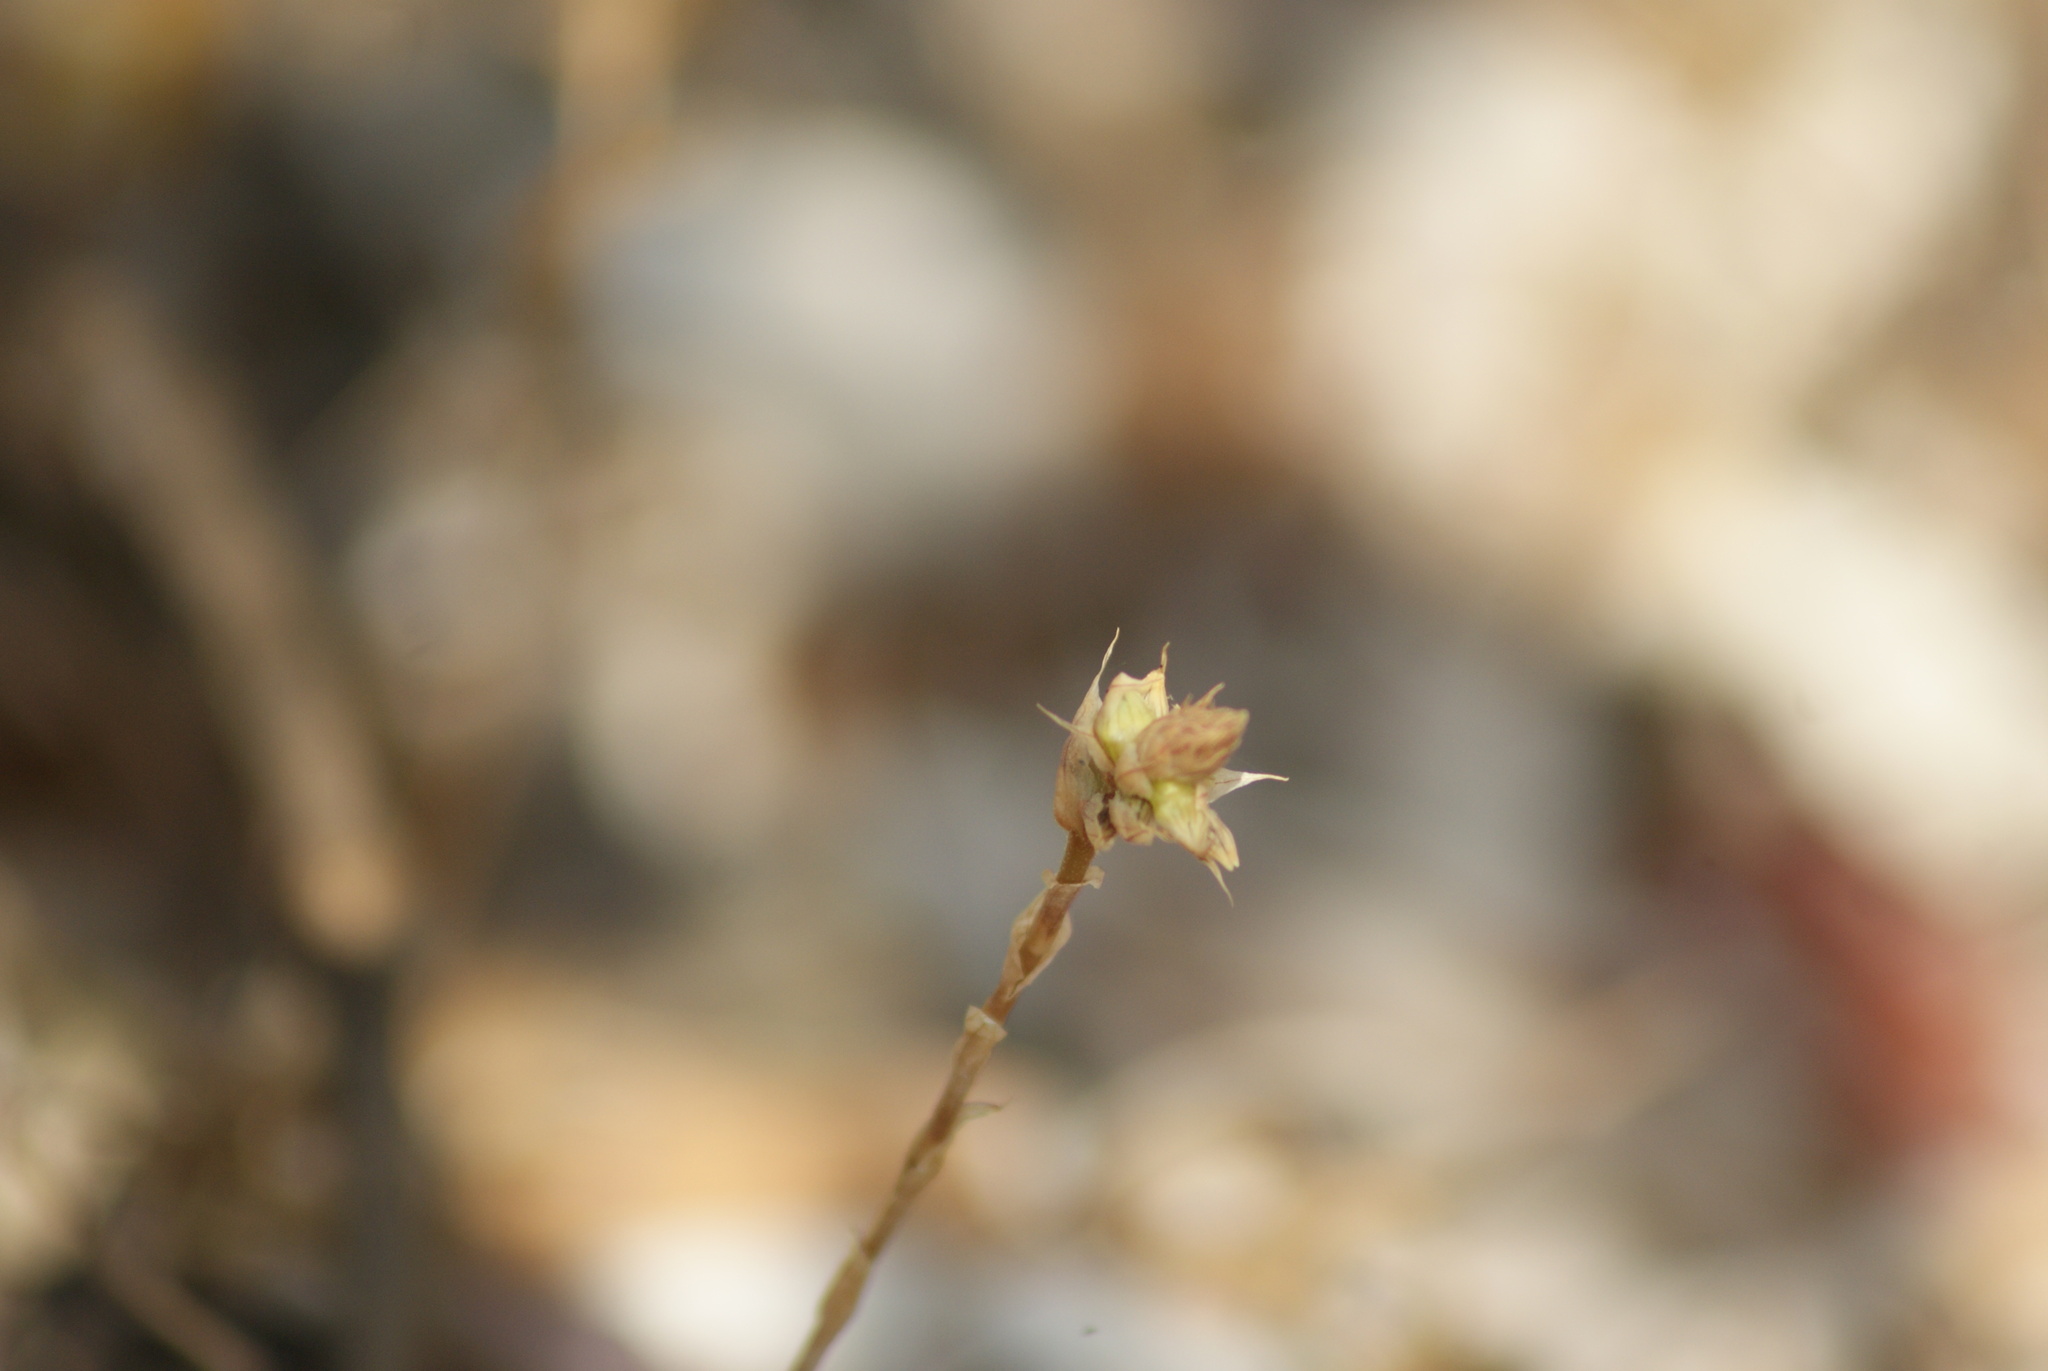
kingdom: Plantae
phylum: Tracheophyta
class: Liliopsida
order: Asparagales
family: Orchidaceae
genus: Aulosepalum
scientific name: Aulosepalum pyramidale
